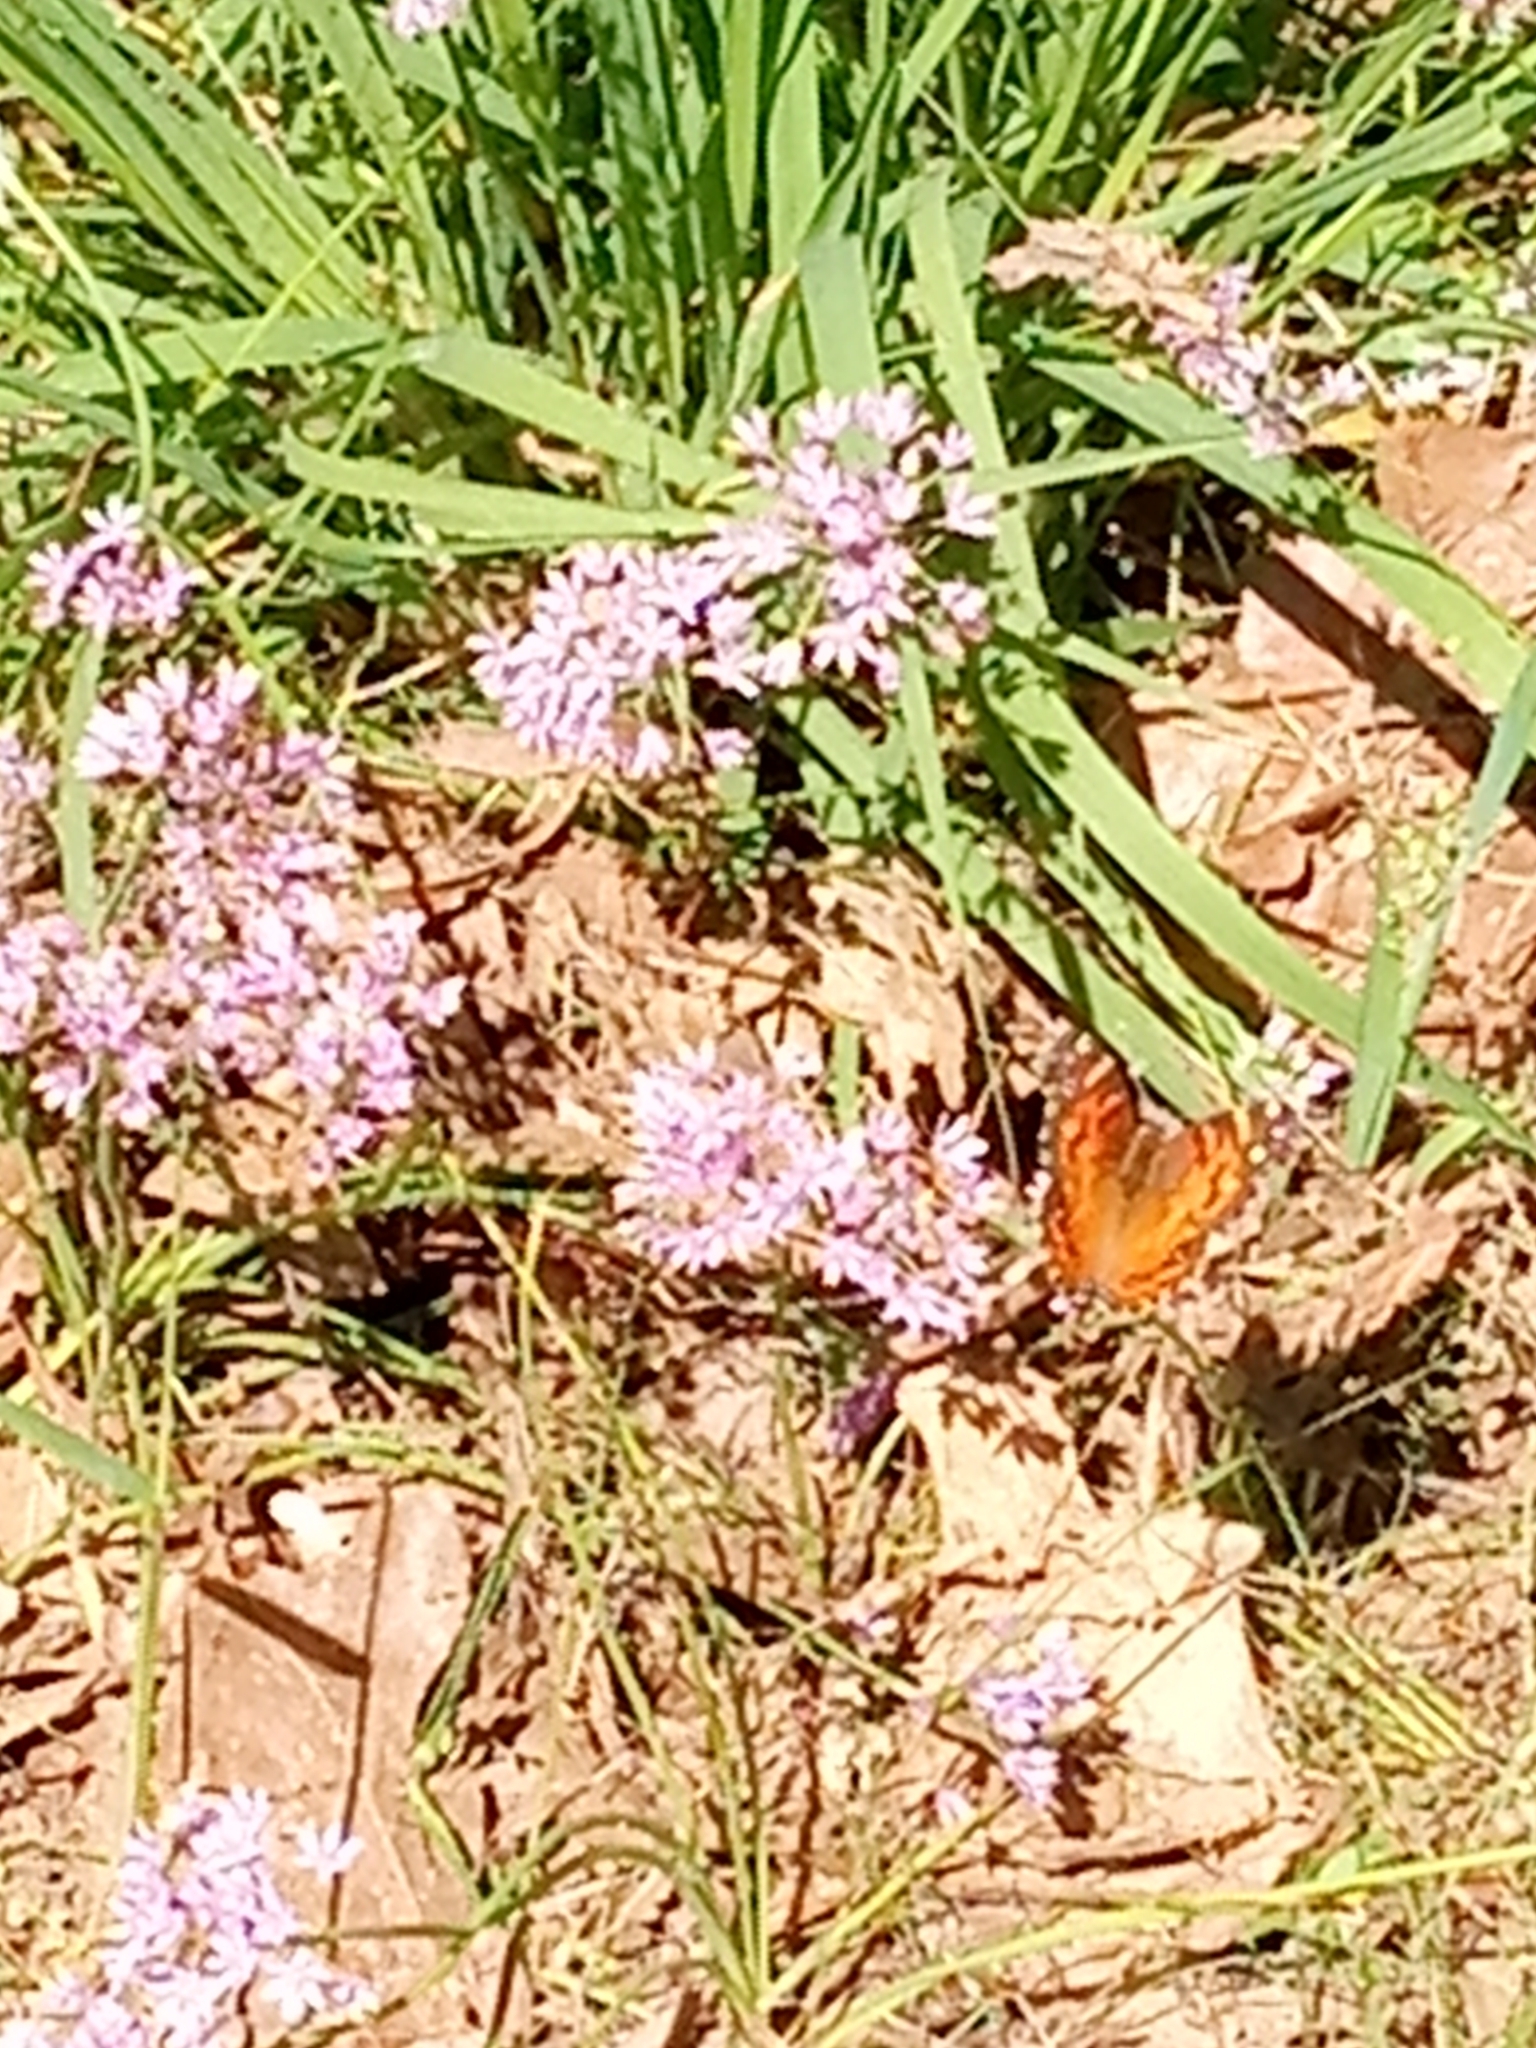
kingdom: Animalia
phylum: Arthropoda
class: Insecta
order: Lepidoptera
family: Nymphalidae
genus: Vanessa
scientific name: Vanessa virginiensis
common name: American lady
